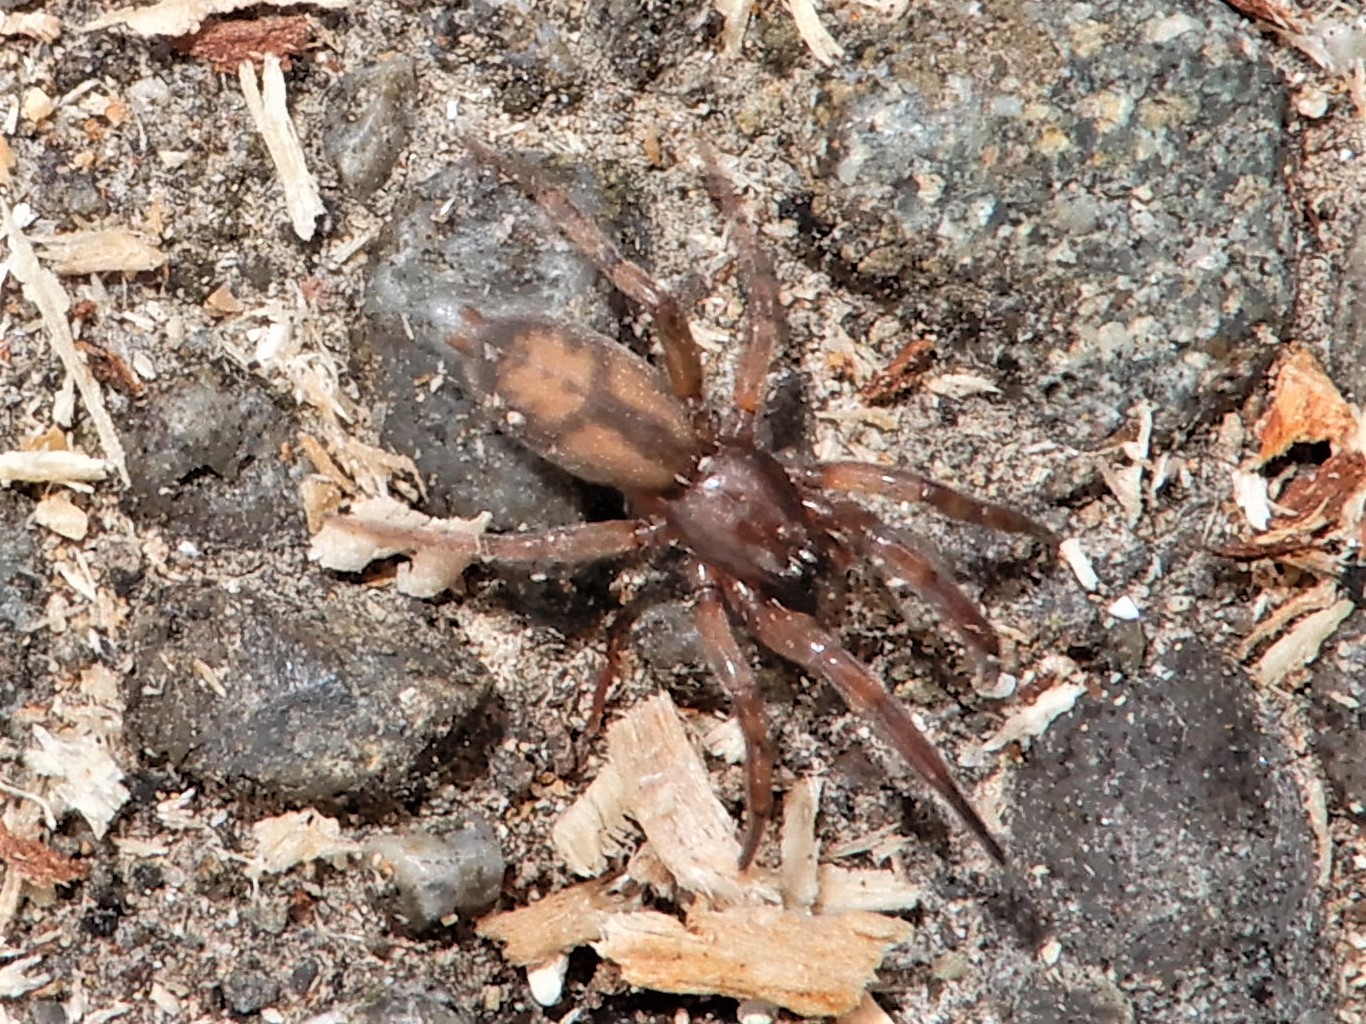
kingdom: Animalia
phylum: Arthropoda
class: Arachnida
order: Araneae
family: Gnaphosidae
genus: Intruda
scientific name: Intruda signata
